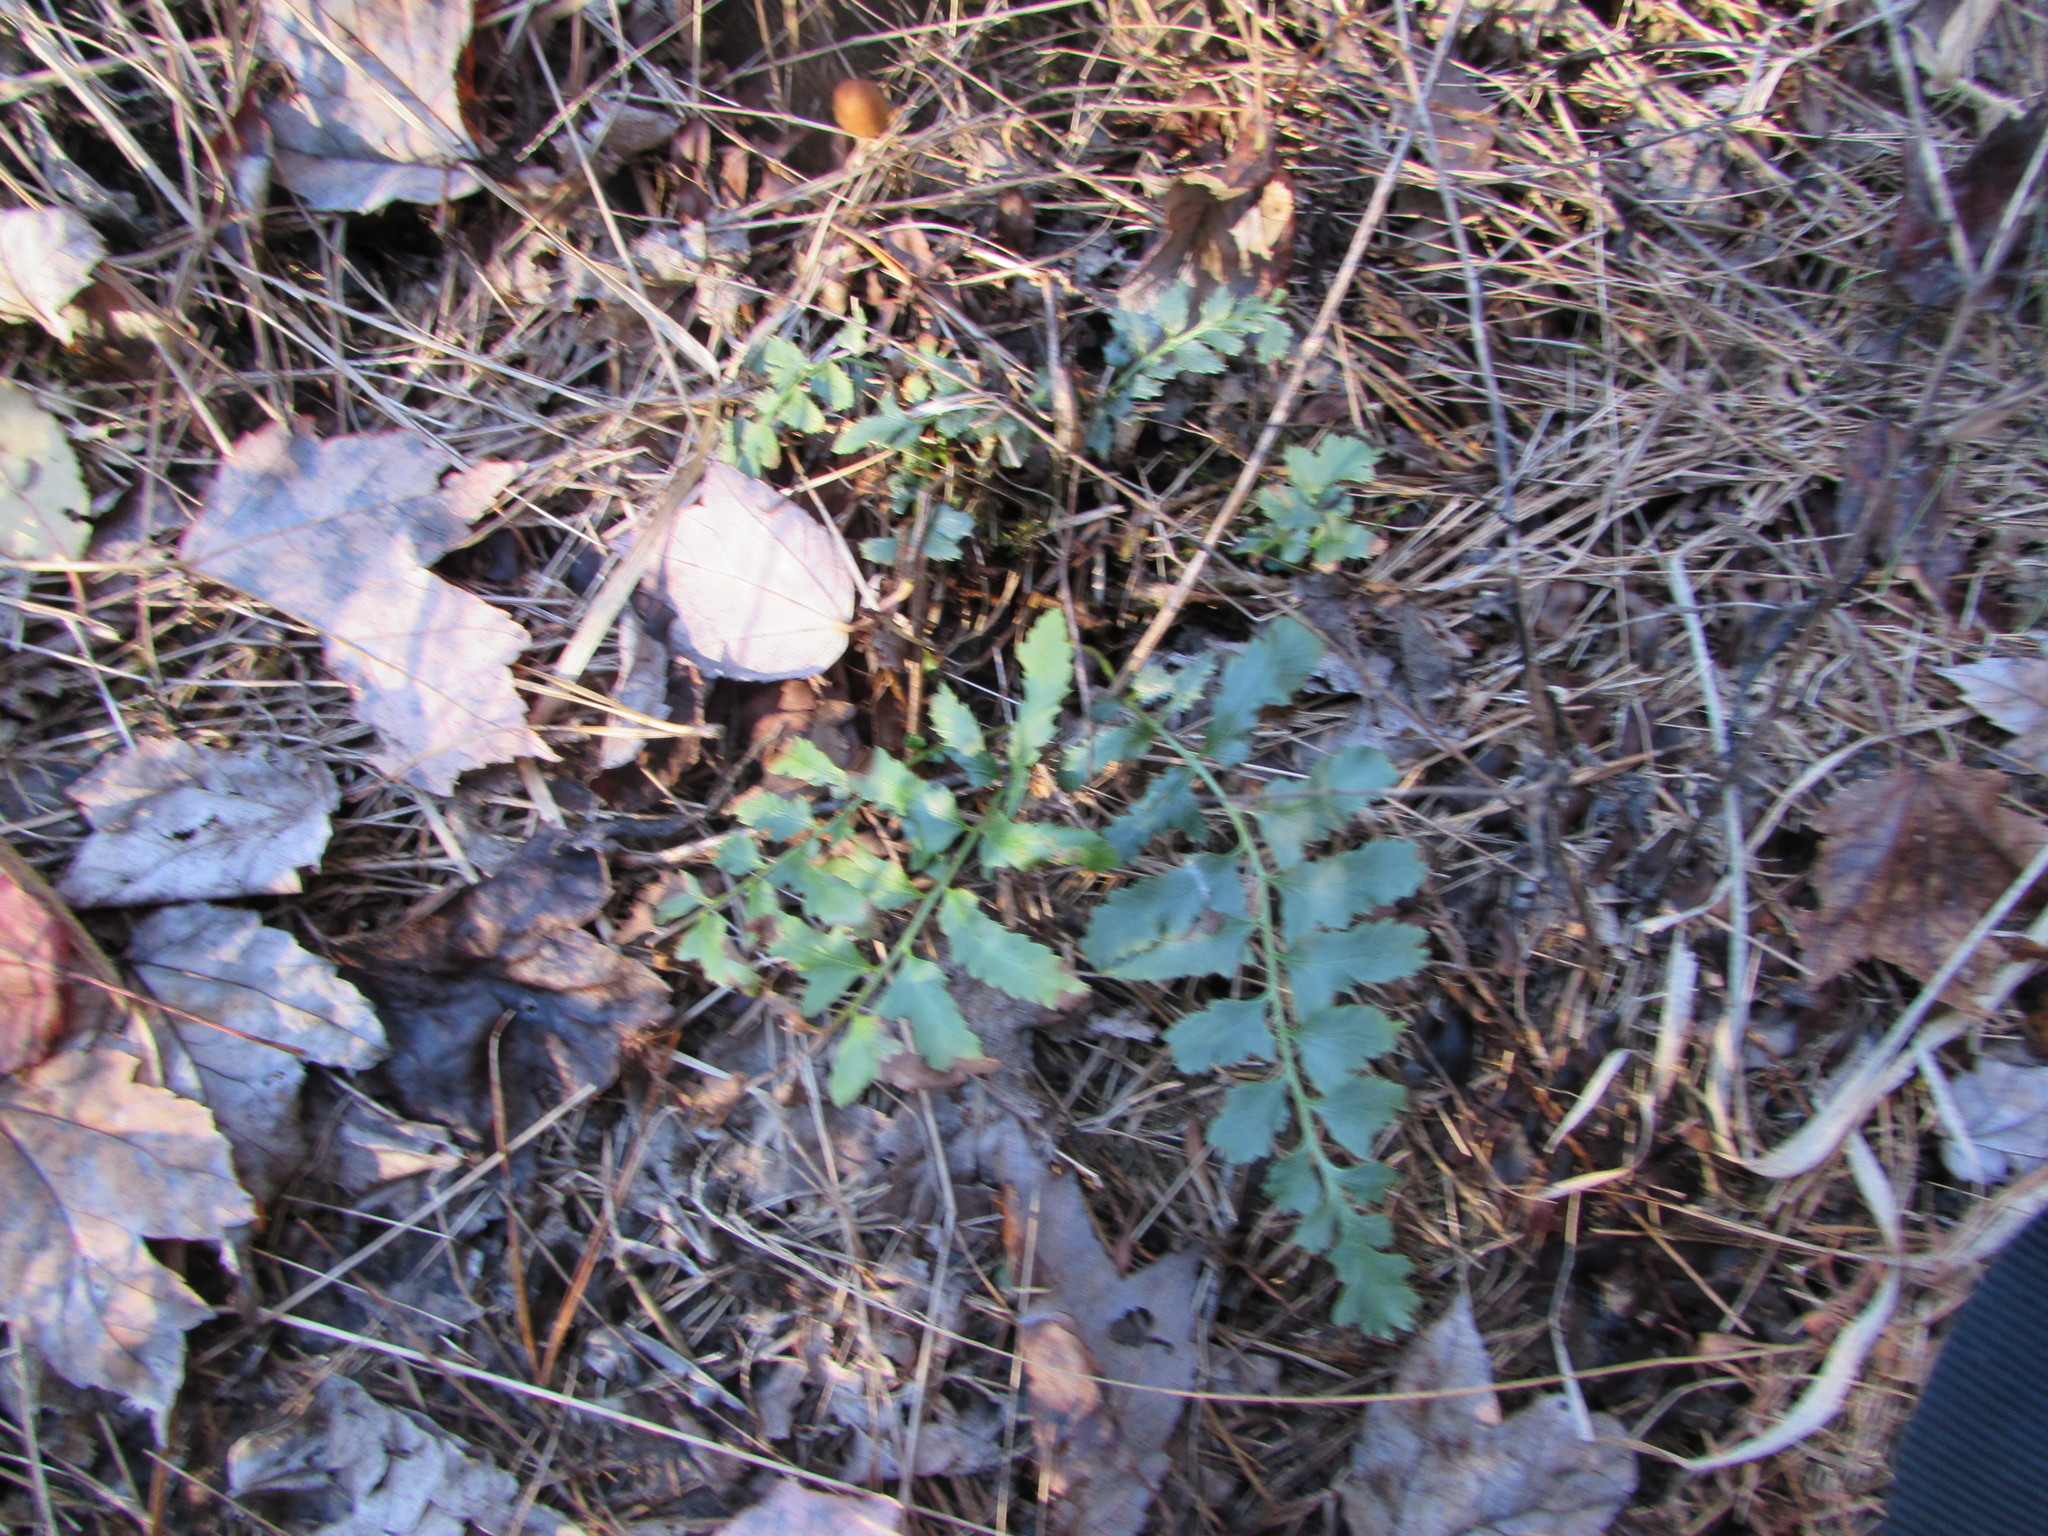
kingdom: Plantae
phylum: Tracheophyta
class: Polypodiopsida
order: Polypodiales
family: Dryopteridaceae
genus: Polystichum
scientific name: Polystichum acrostichoides
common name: Christmas fern
